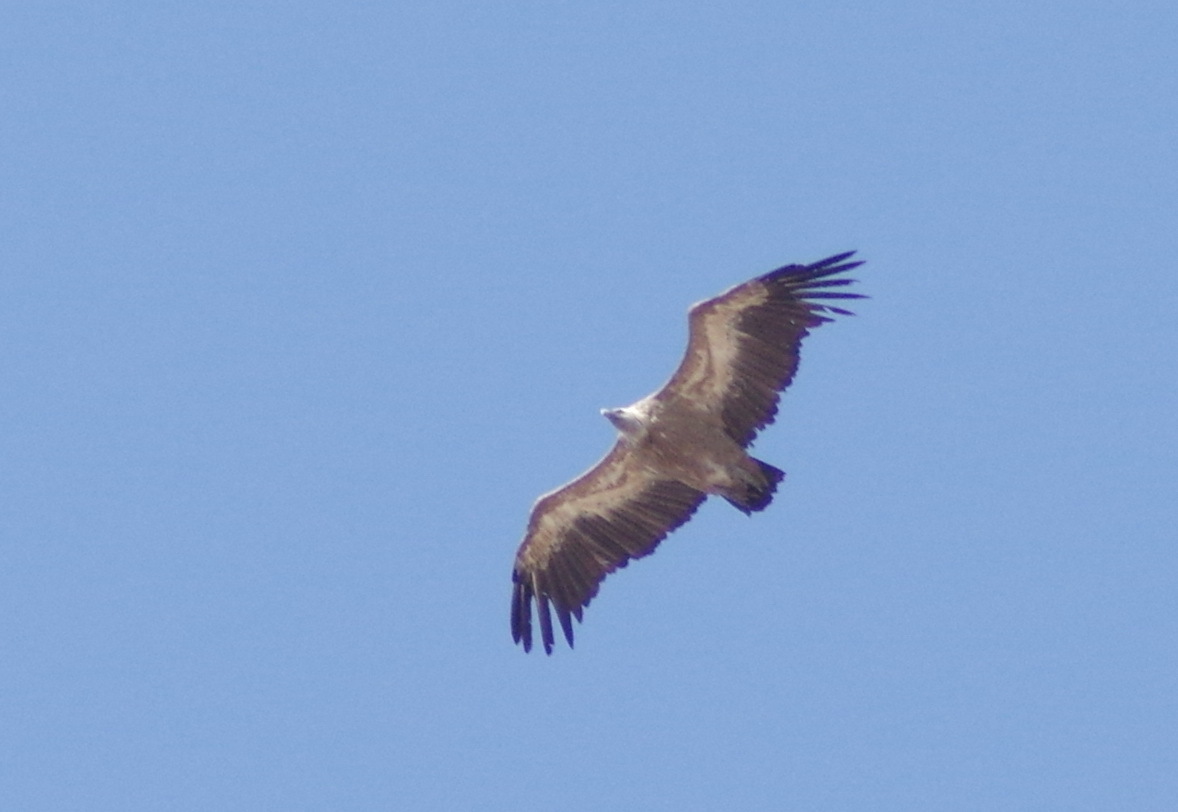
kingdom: Animalia
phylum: Chordata
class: Aves
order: Accipitriformes
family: Accipitridae
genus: Gyps
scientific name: Gyps fulvus
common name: Griffon vulture
